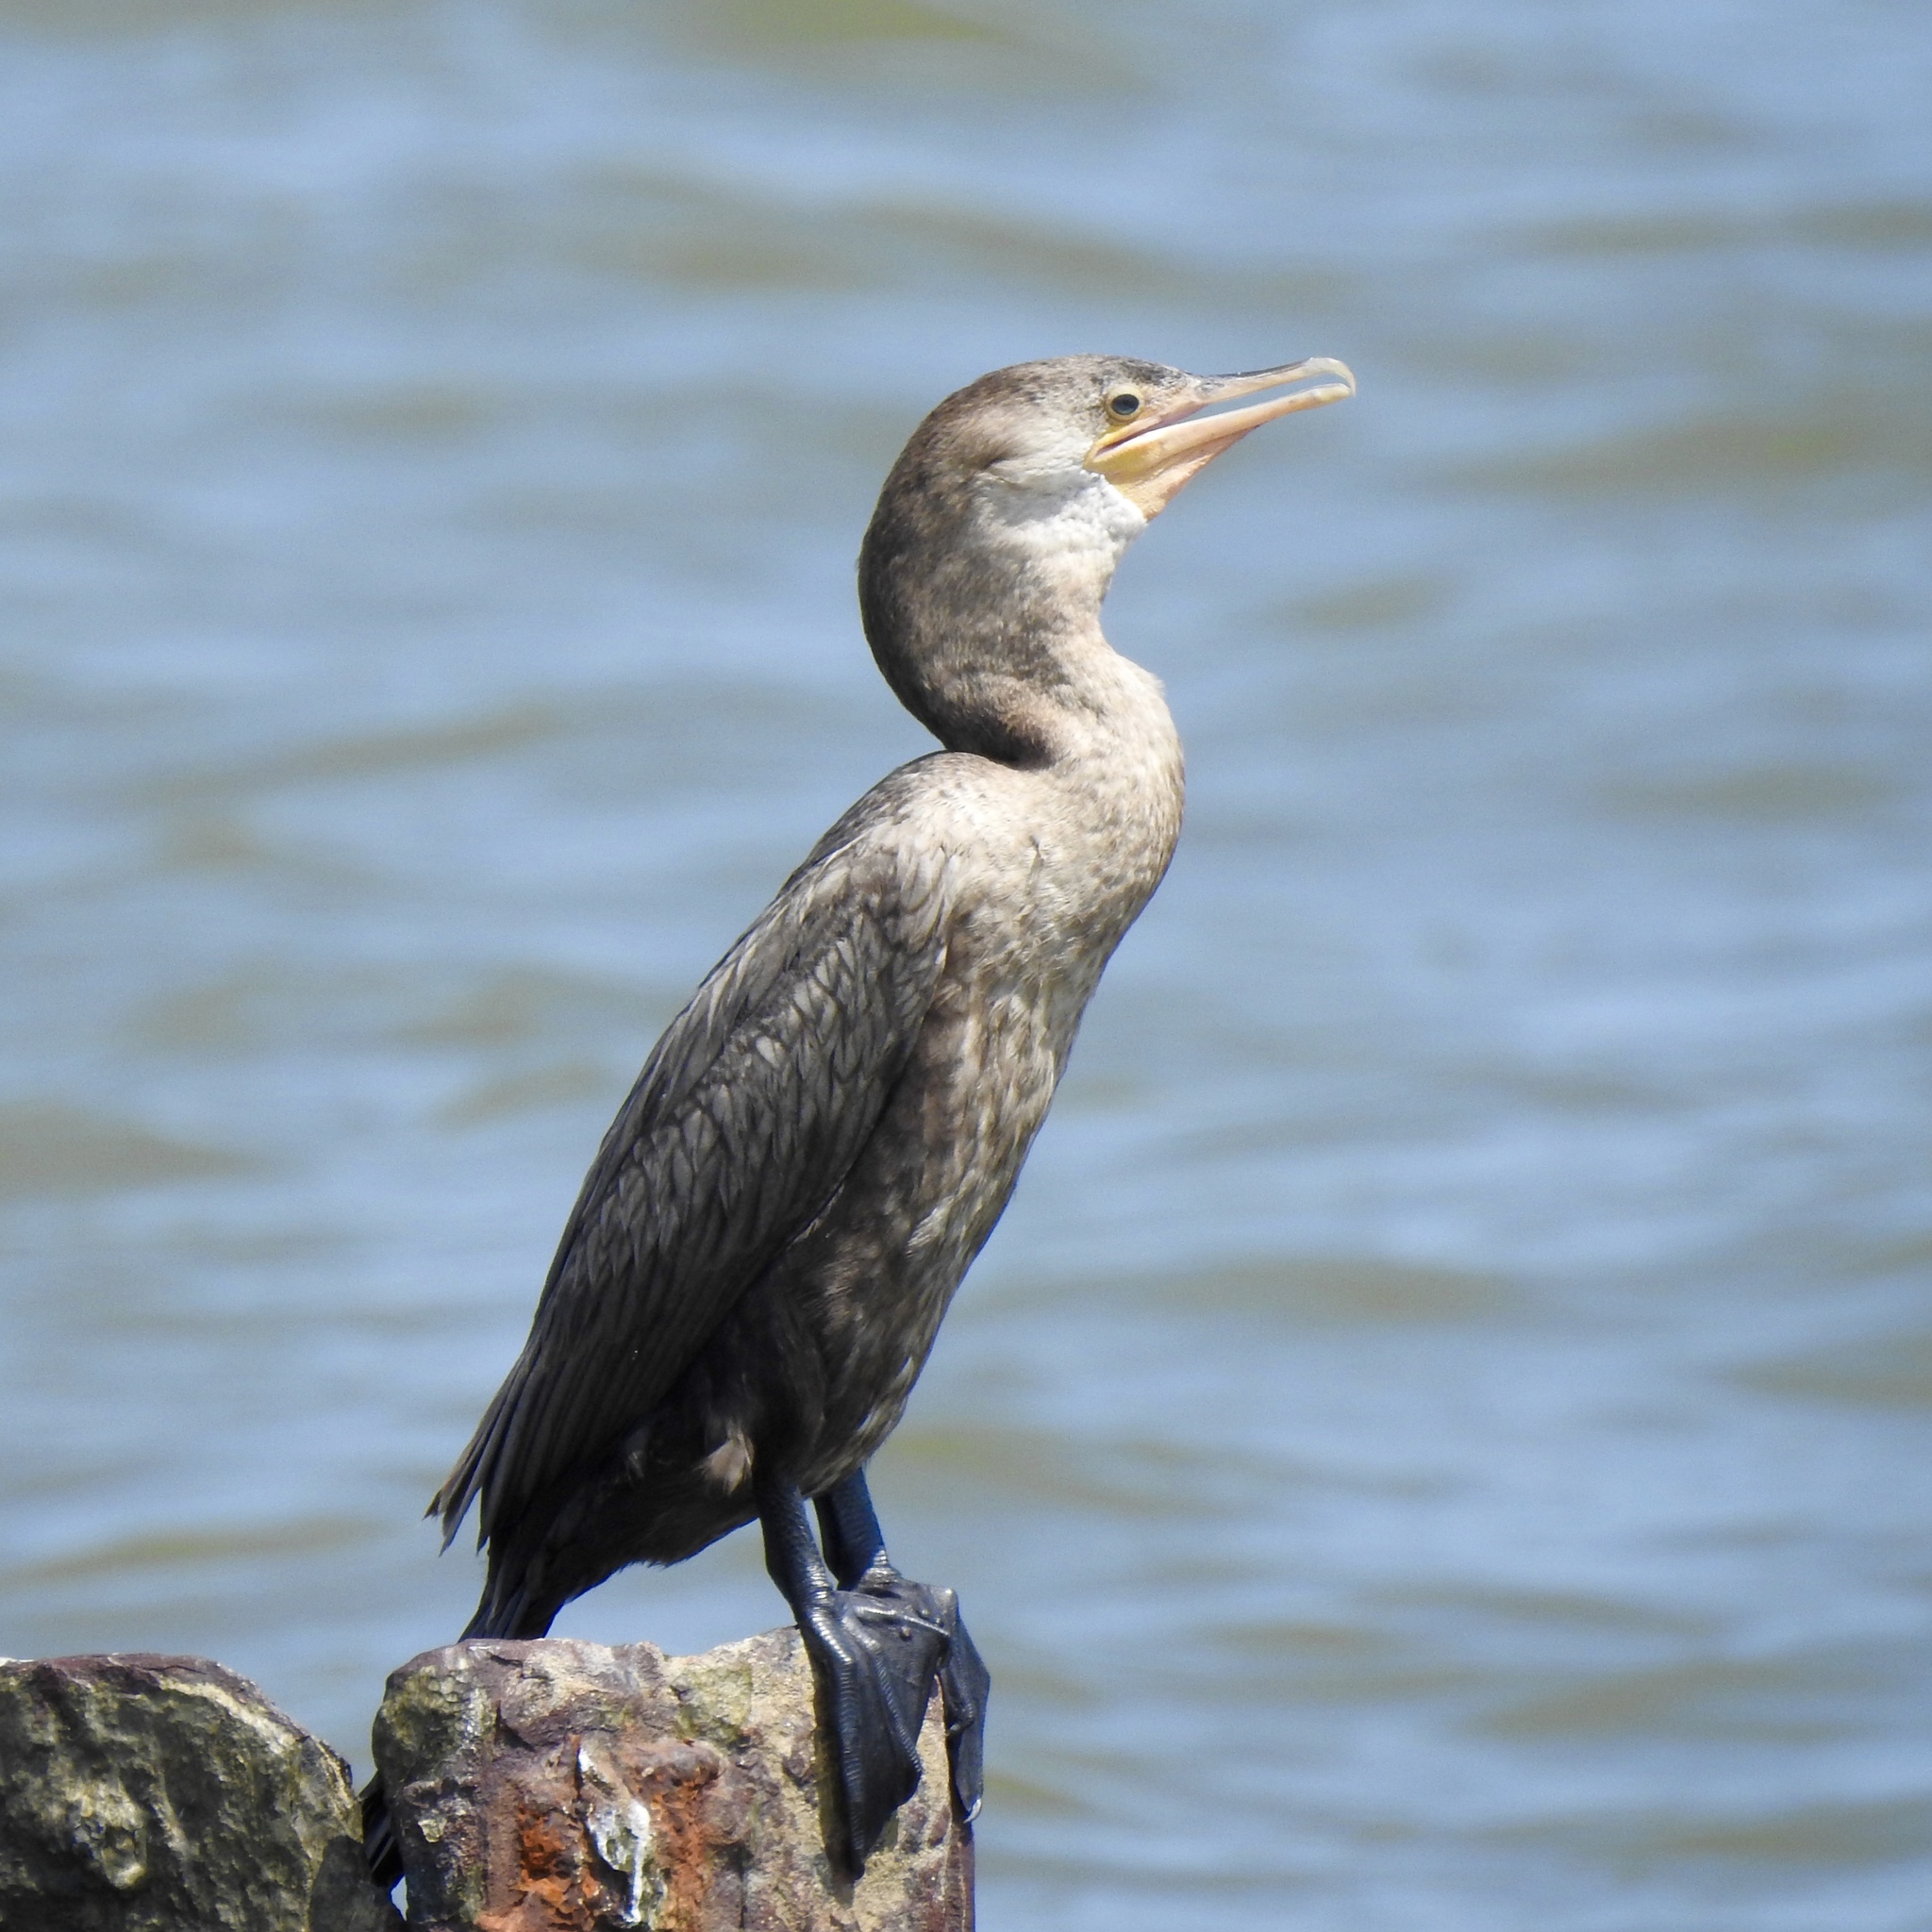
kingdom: Animalia
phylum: Chordata
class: Aves
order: Suliformes
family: Phalacrocoracidae
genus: Phalacrocorax
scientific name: Phalacrocorax brasilianus
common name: Neotropic cormorant
